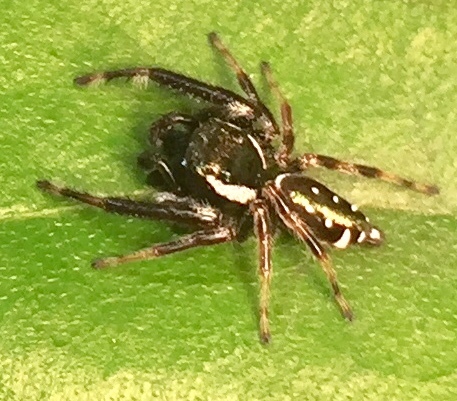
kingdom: Animalia
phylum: Arthropoda
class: Arachnida
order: Araneae
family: Salticidae
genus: Paraphidippus
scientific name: Paraphidippus aurantius
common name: Jumping spiders
